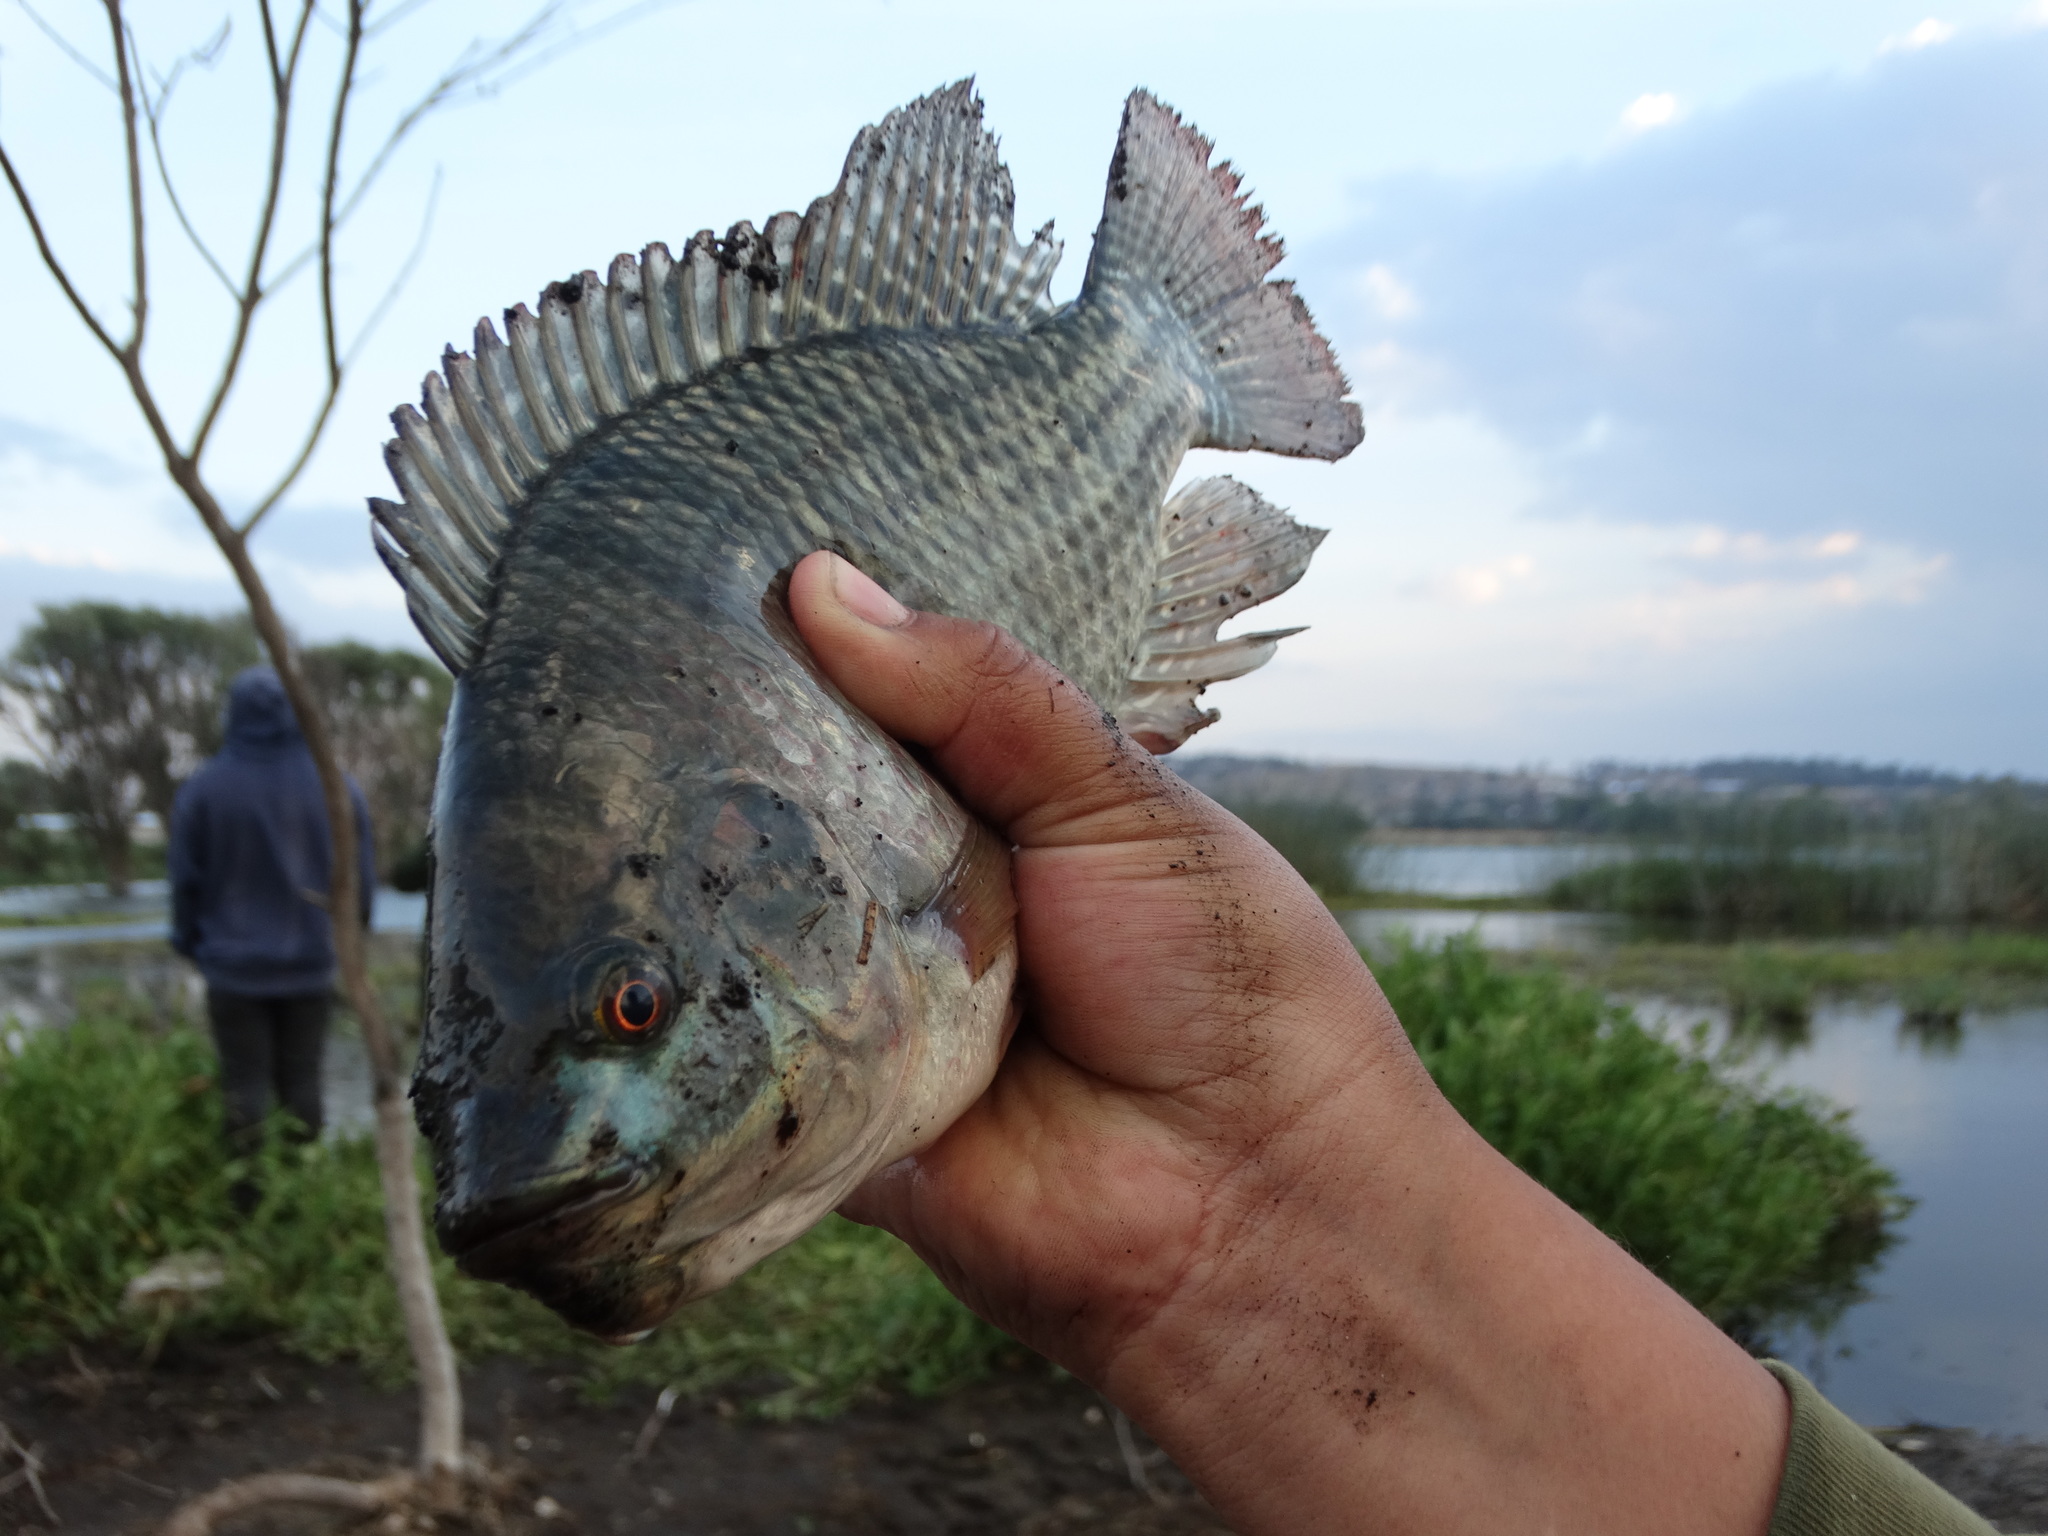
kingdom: Animalia
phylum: Chordata
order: Perciformes
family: Cichlidae
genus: Oreochromis
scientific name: Oreochromis niloticus
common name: Nile tilapia
